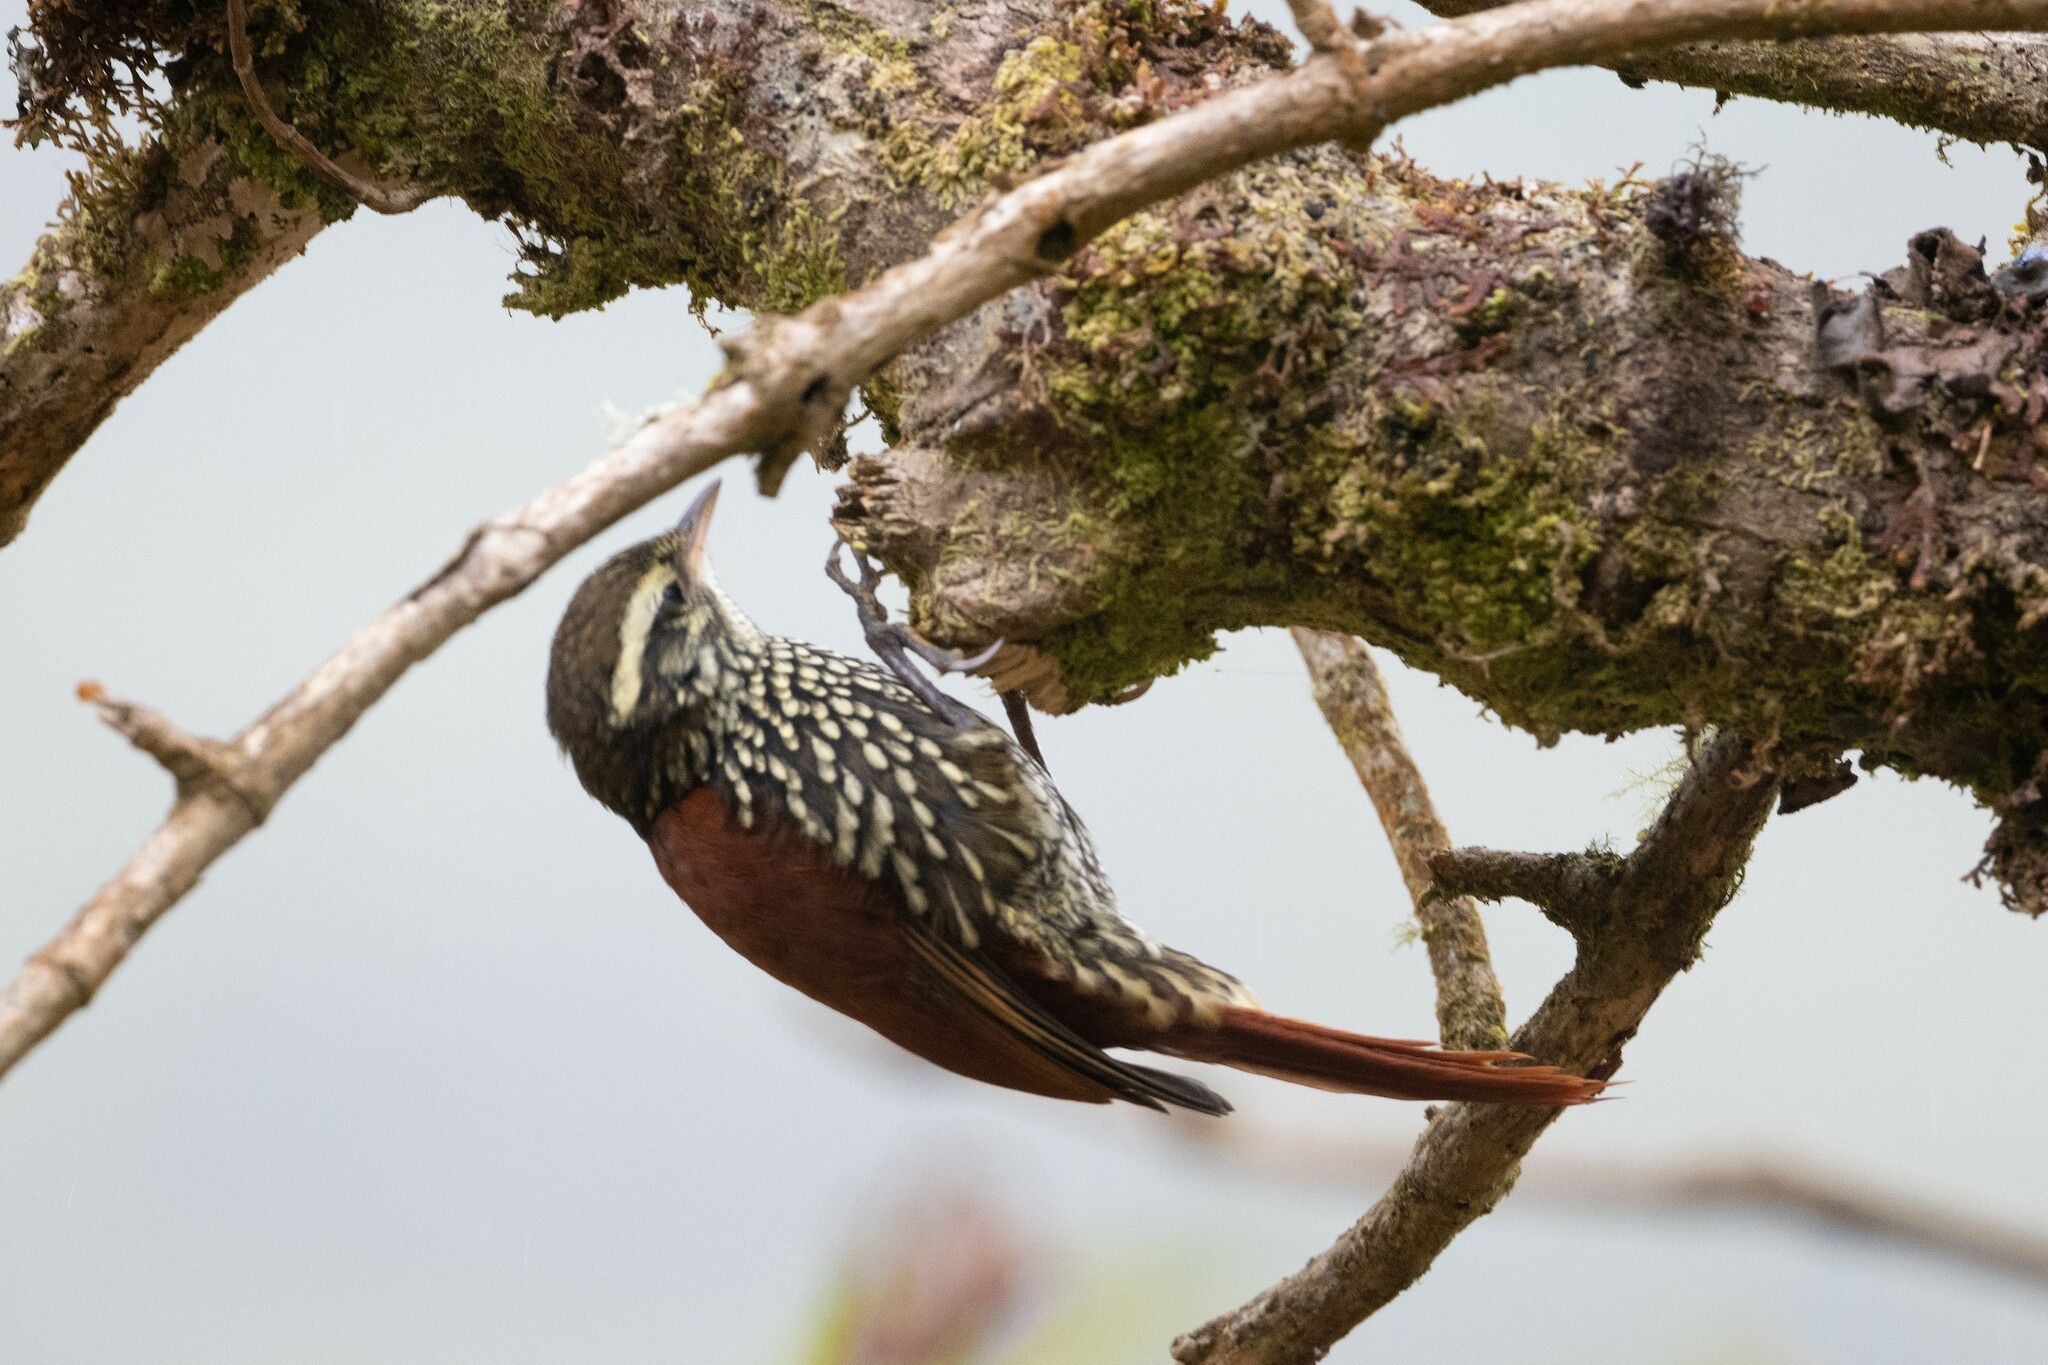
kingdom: Animalia
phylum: Chordata
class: Aves
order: Passeriformes
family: Furnariidae
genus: Margarornis
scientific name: Margarornis squamiger
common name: Pearled treerunner
